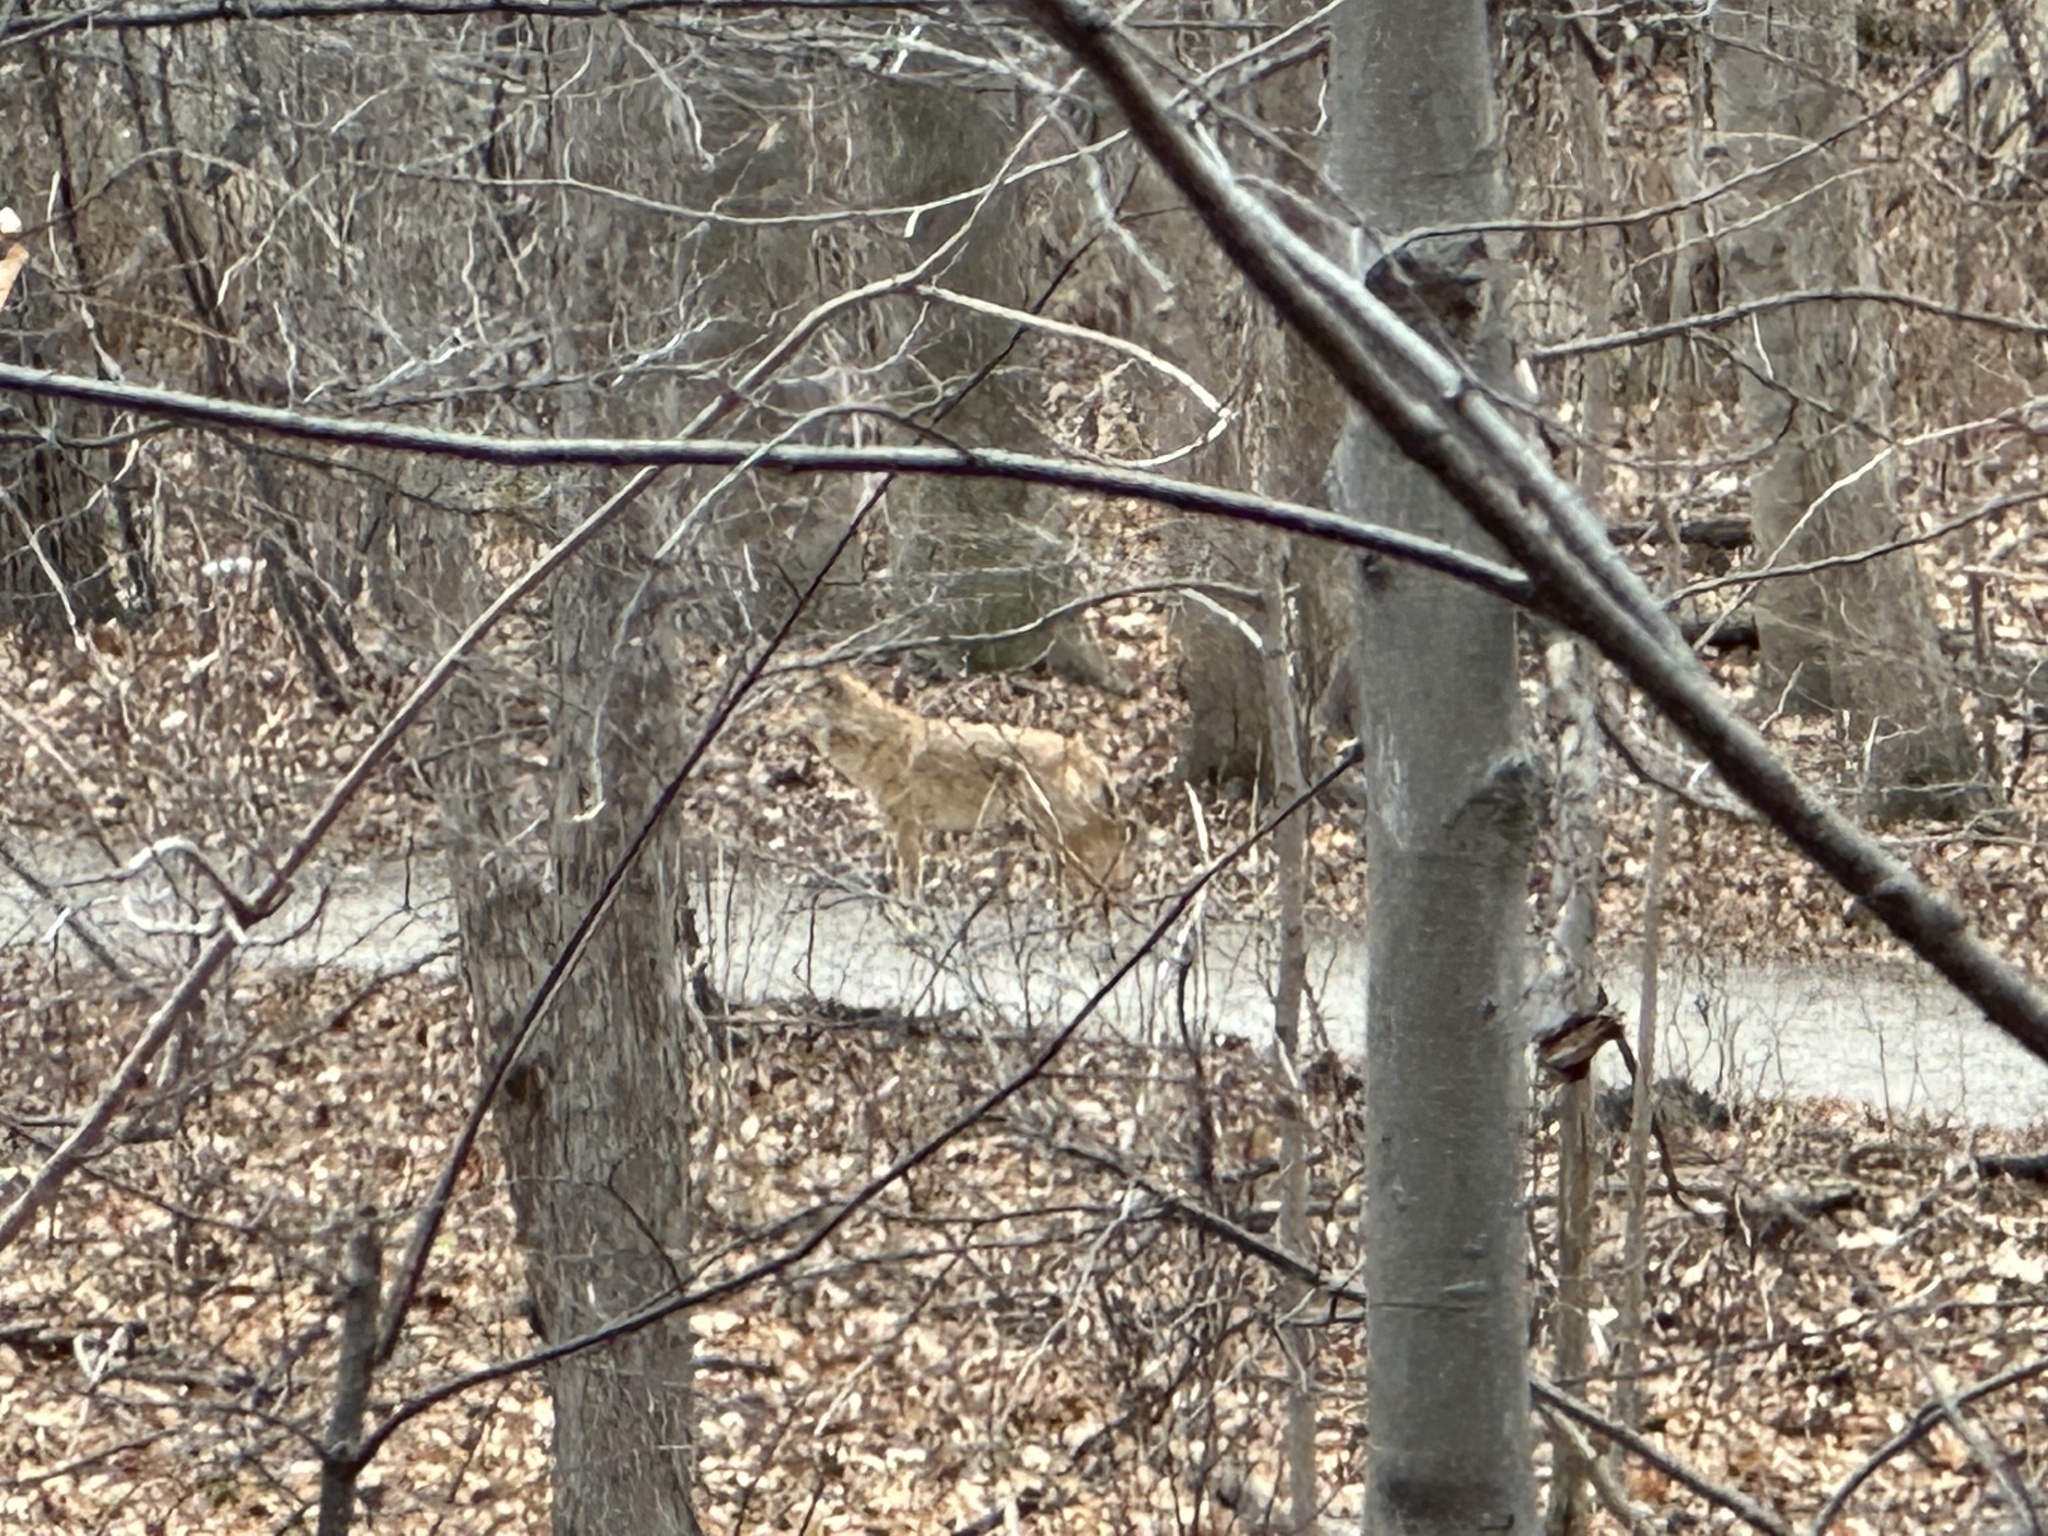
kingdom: Animalia
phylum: Chordata
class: Mammalia
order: Carnivora
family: Canidae
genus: Canis
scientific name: Canis latrans
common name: Coyote
